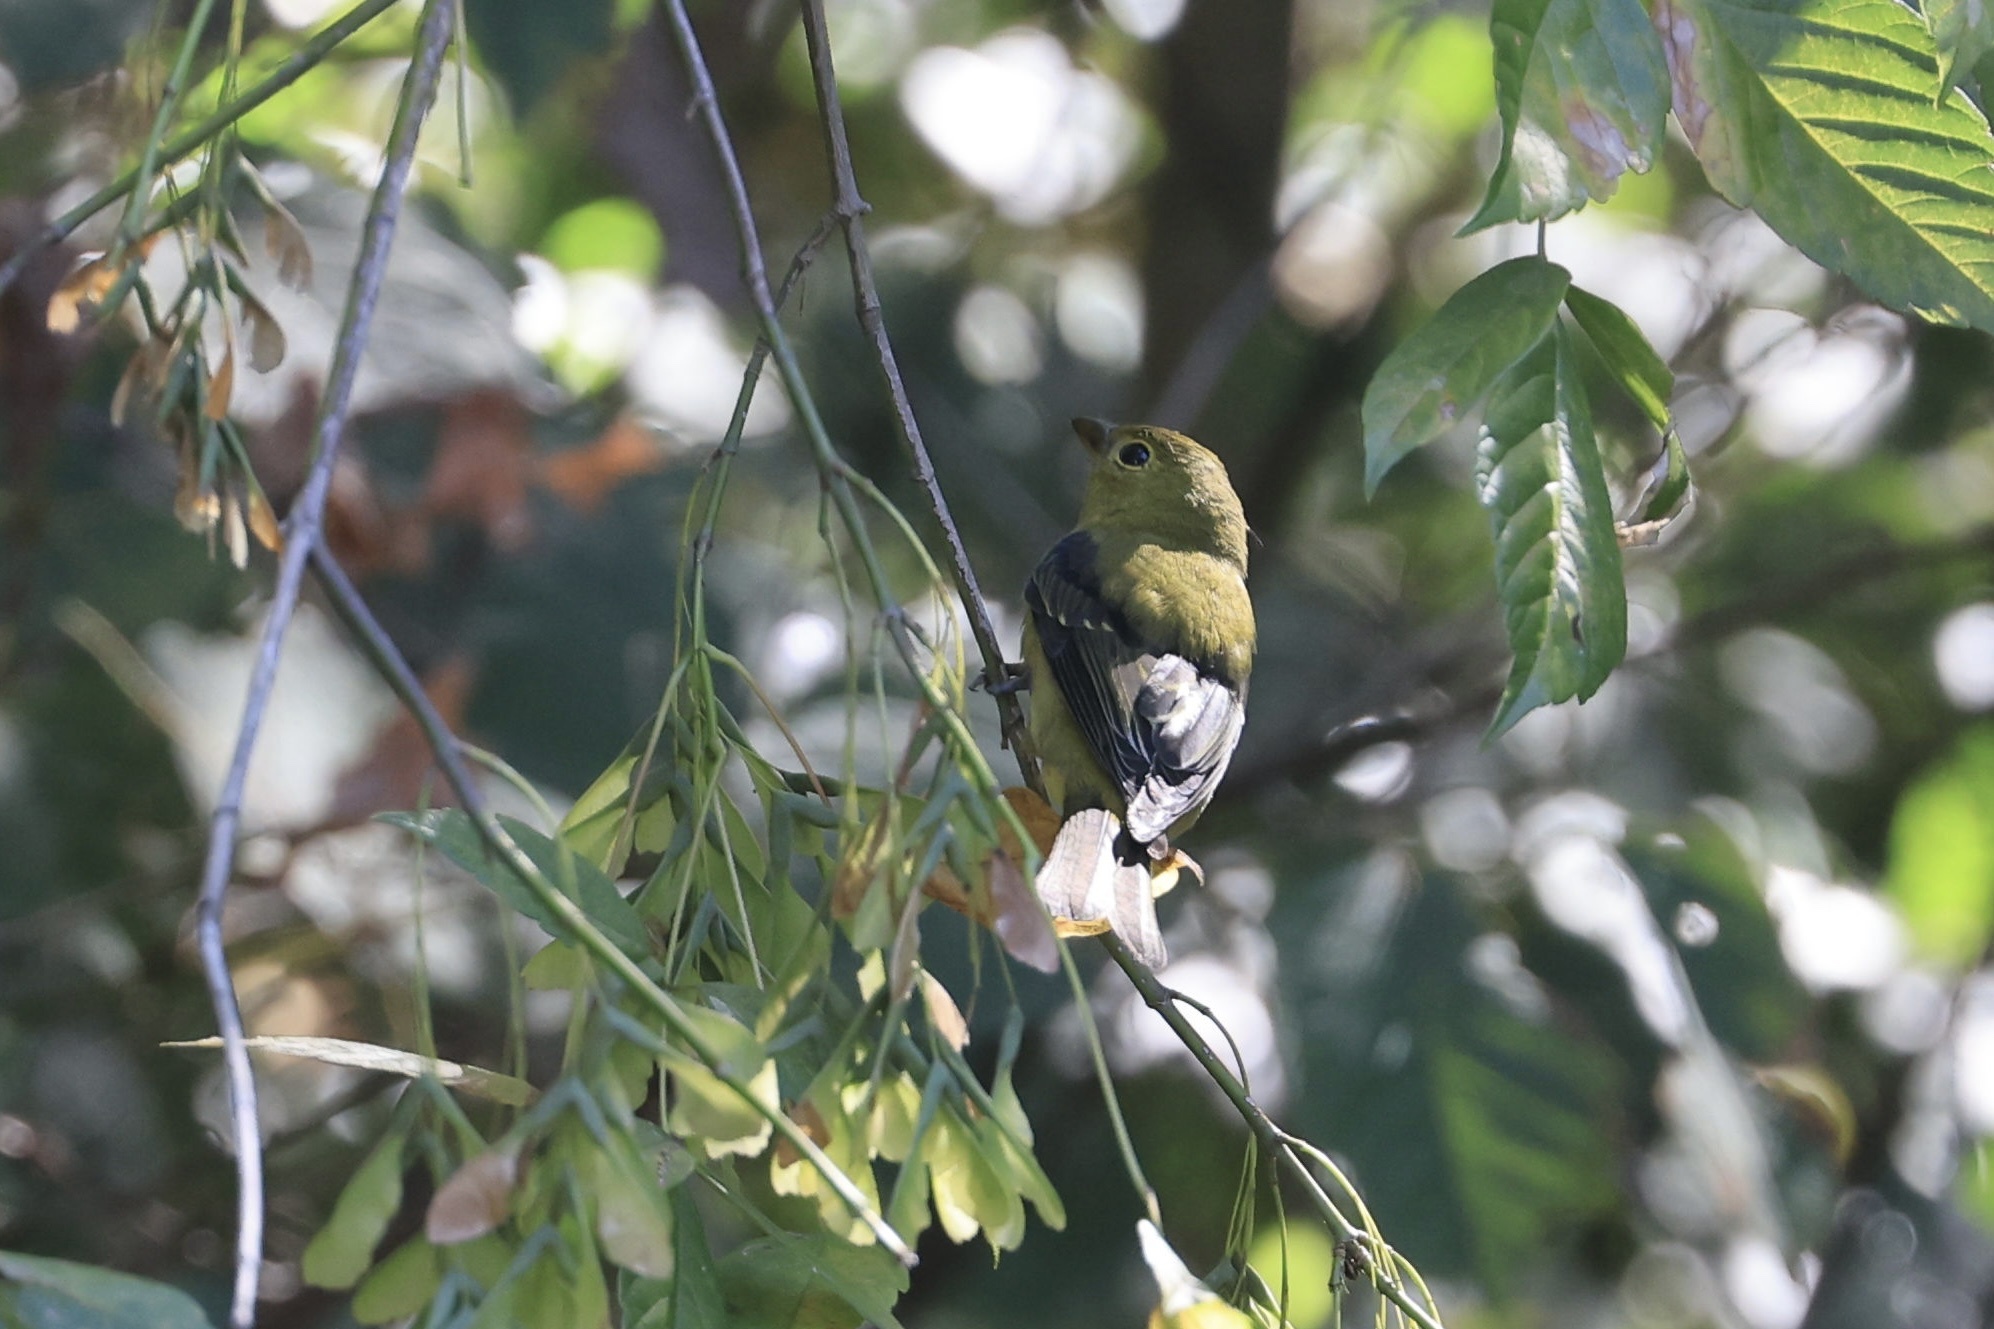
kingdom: Animalia
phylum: Chordata
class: Aves
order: Passeriformes
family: Cardinalidae
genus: Piranga
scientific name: Piranga olivacea
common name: Scarlet tanager
